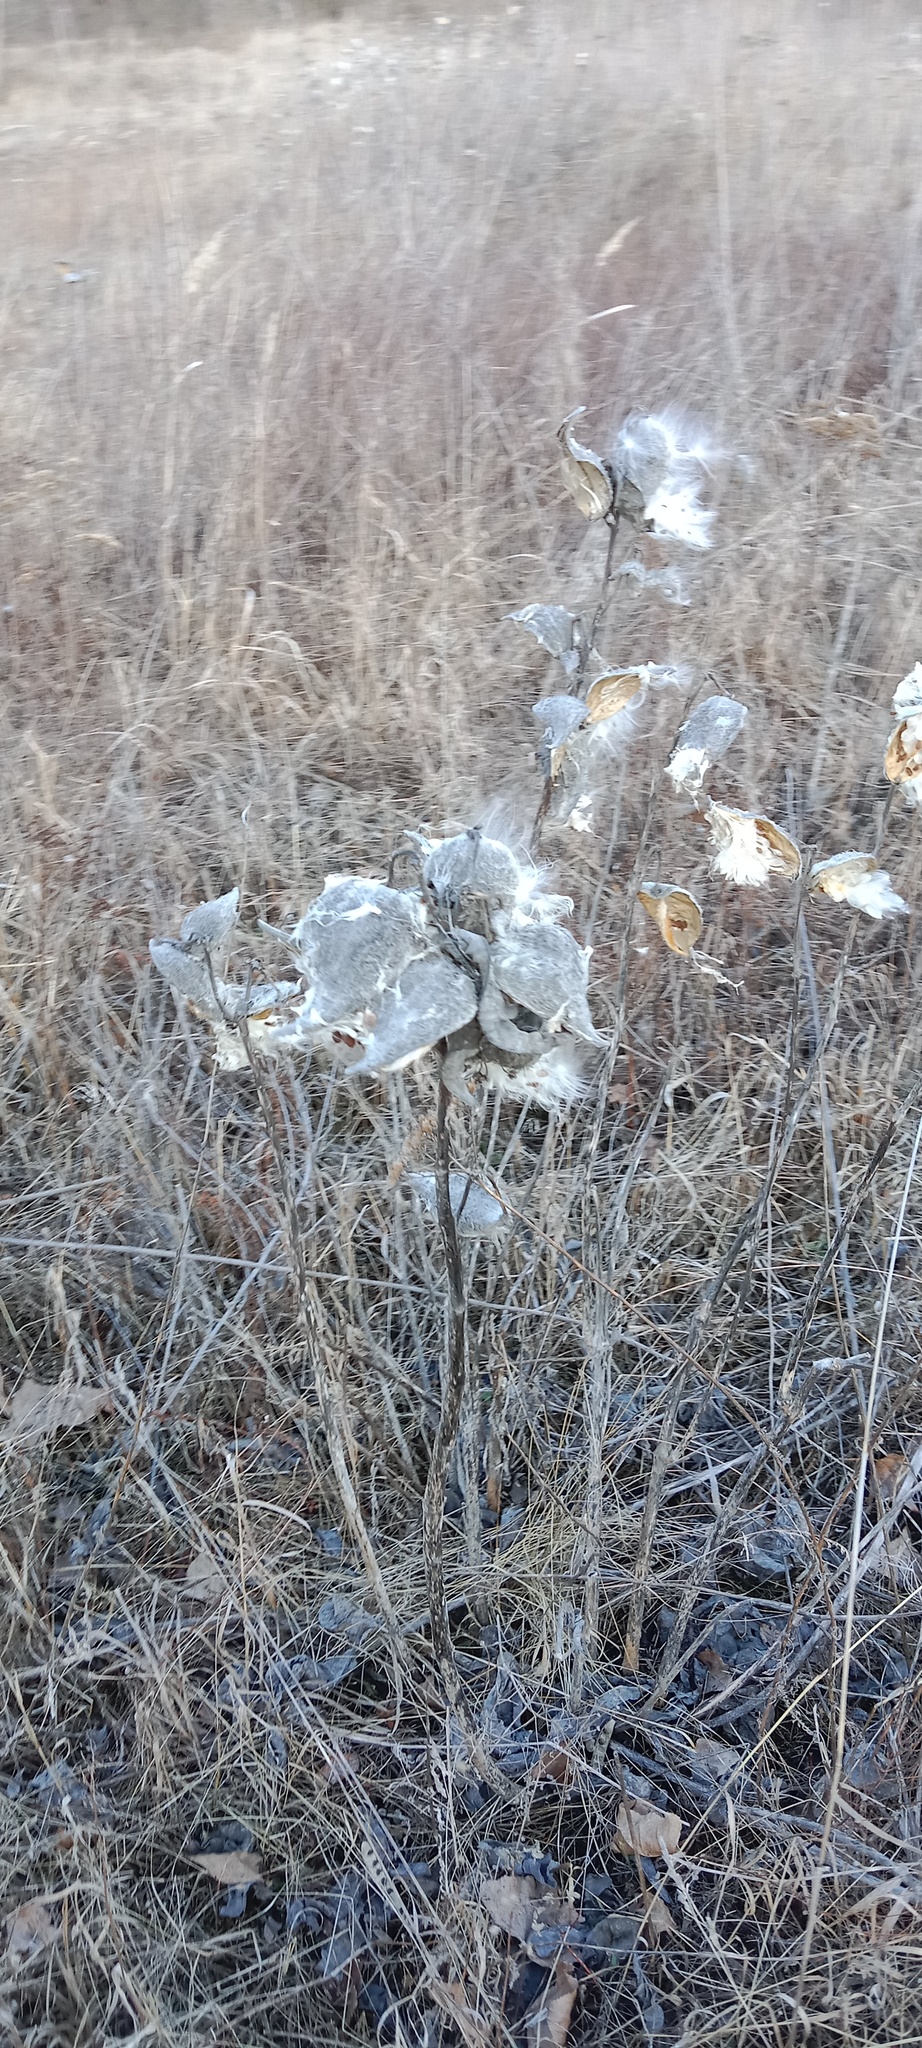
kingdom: Plantae
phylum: Tracheophyta
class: Magnoliopsida
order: Gentianales
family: Apocynaceae
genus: Asclepias
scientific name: Asclepias syriaca
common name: Common milkweed
